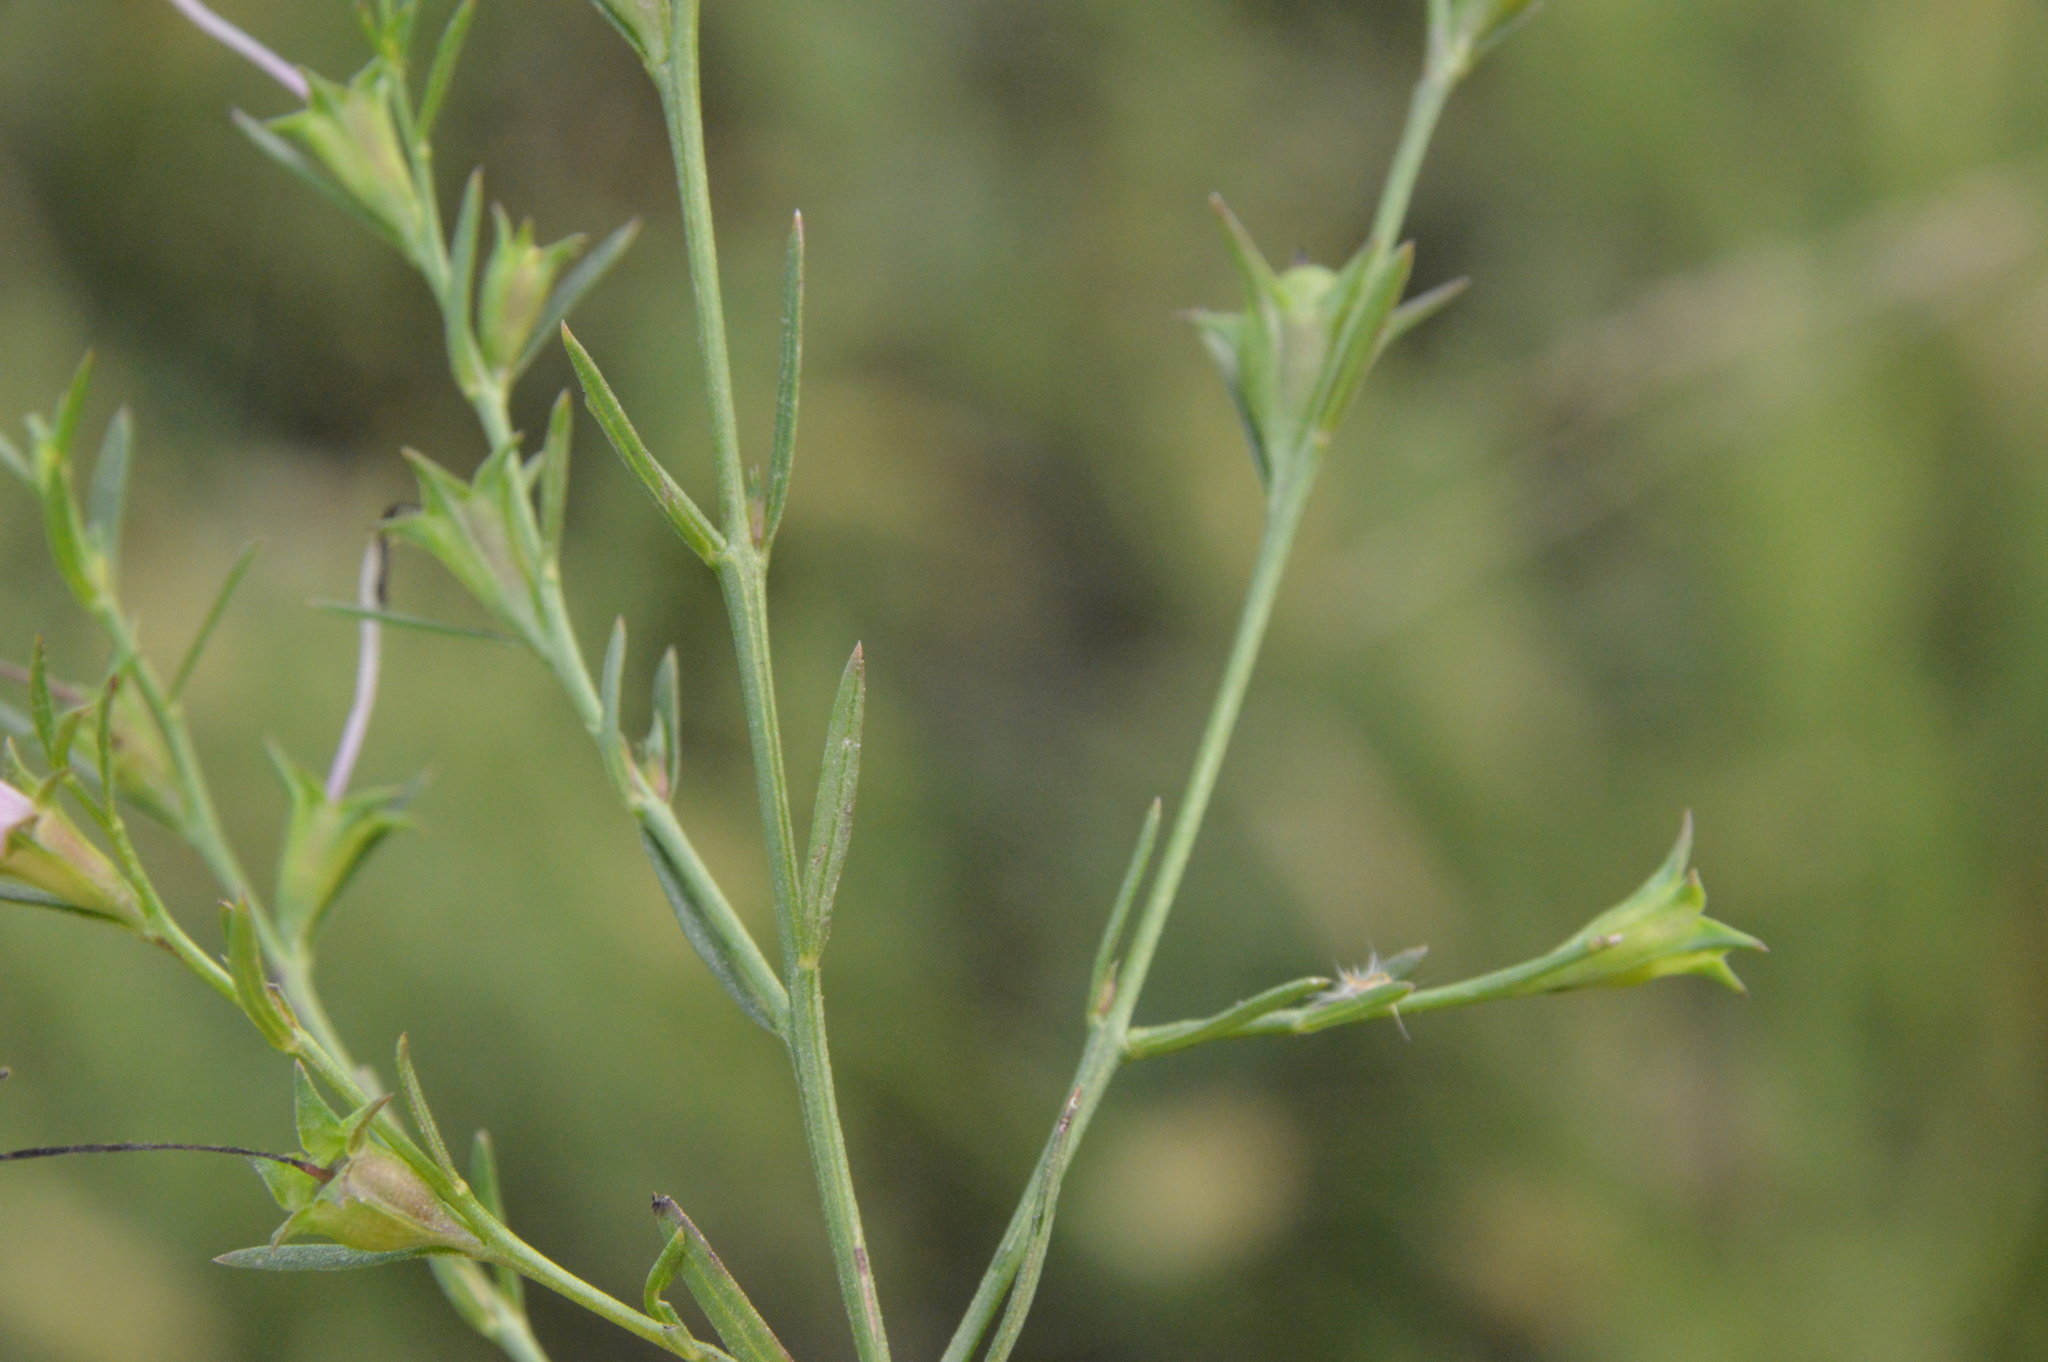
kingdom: Plantae
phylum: Tracheophyta
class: Magnoliopsida
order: Lamiales
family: Orobanchaceae
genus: Agalinis
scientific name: Agalinis heterophylla
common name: Prairie agalinis
